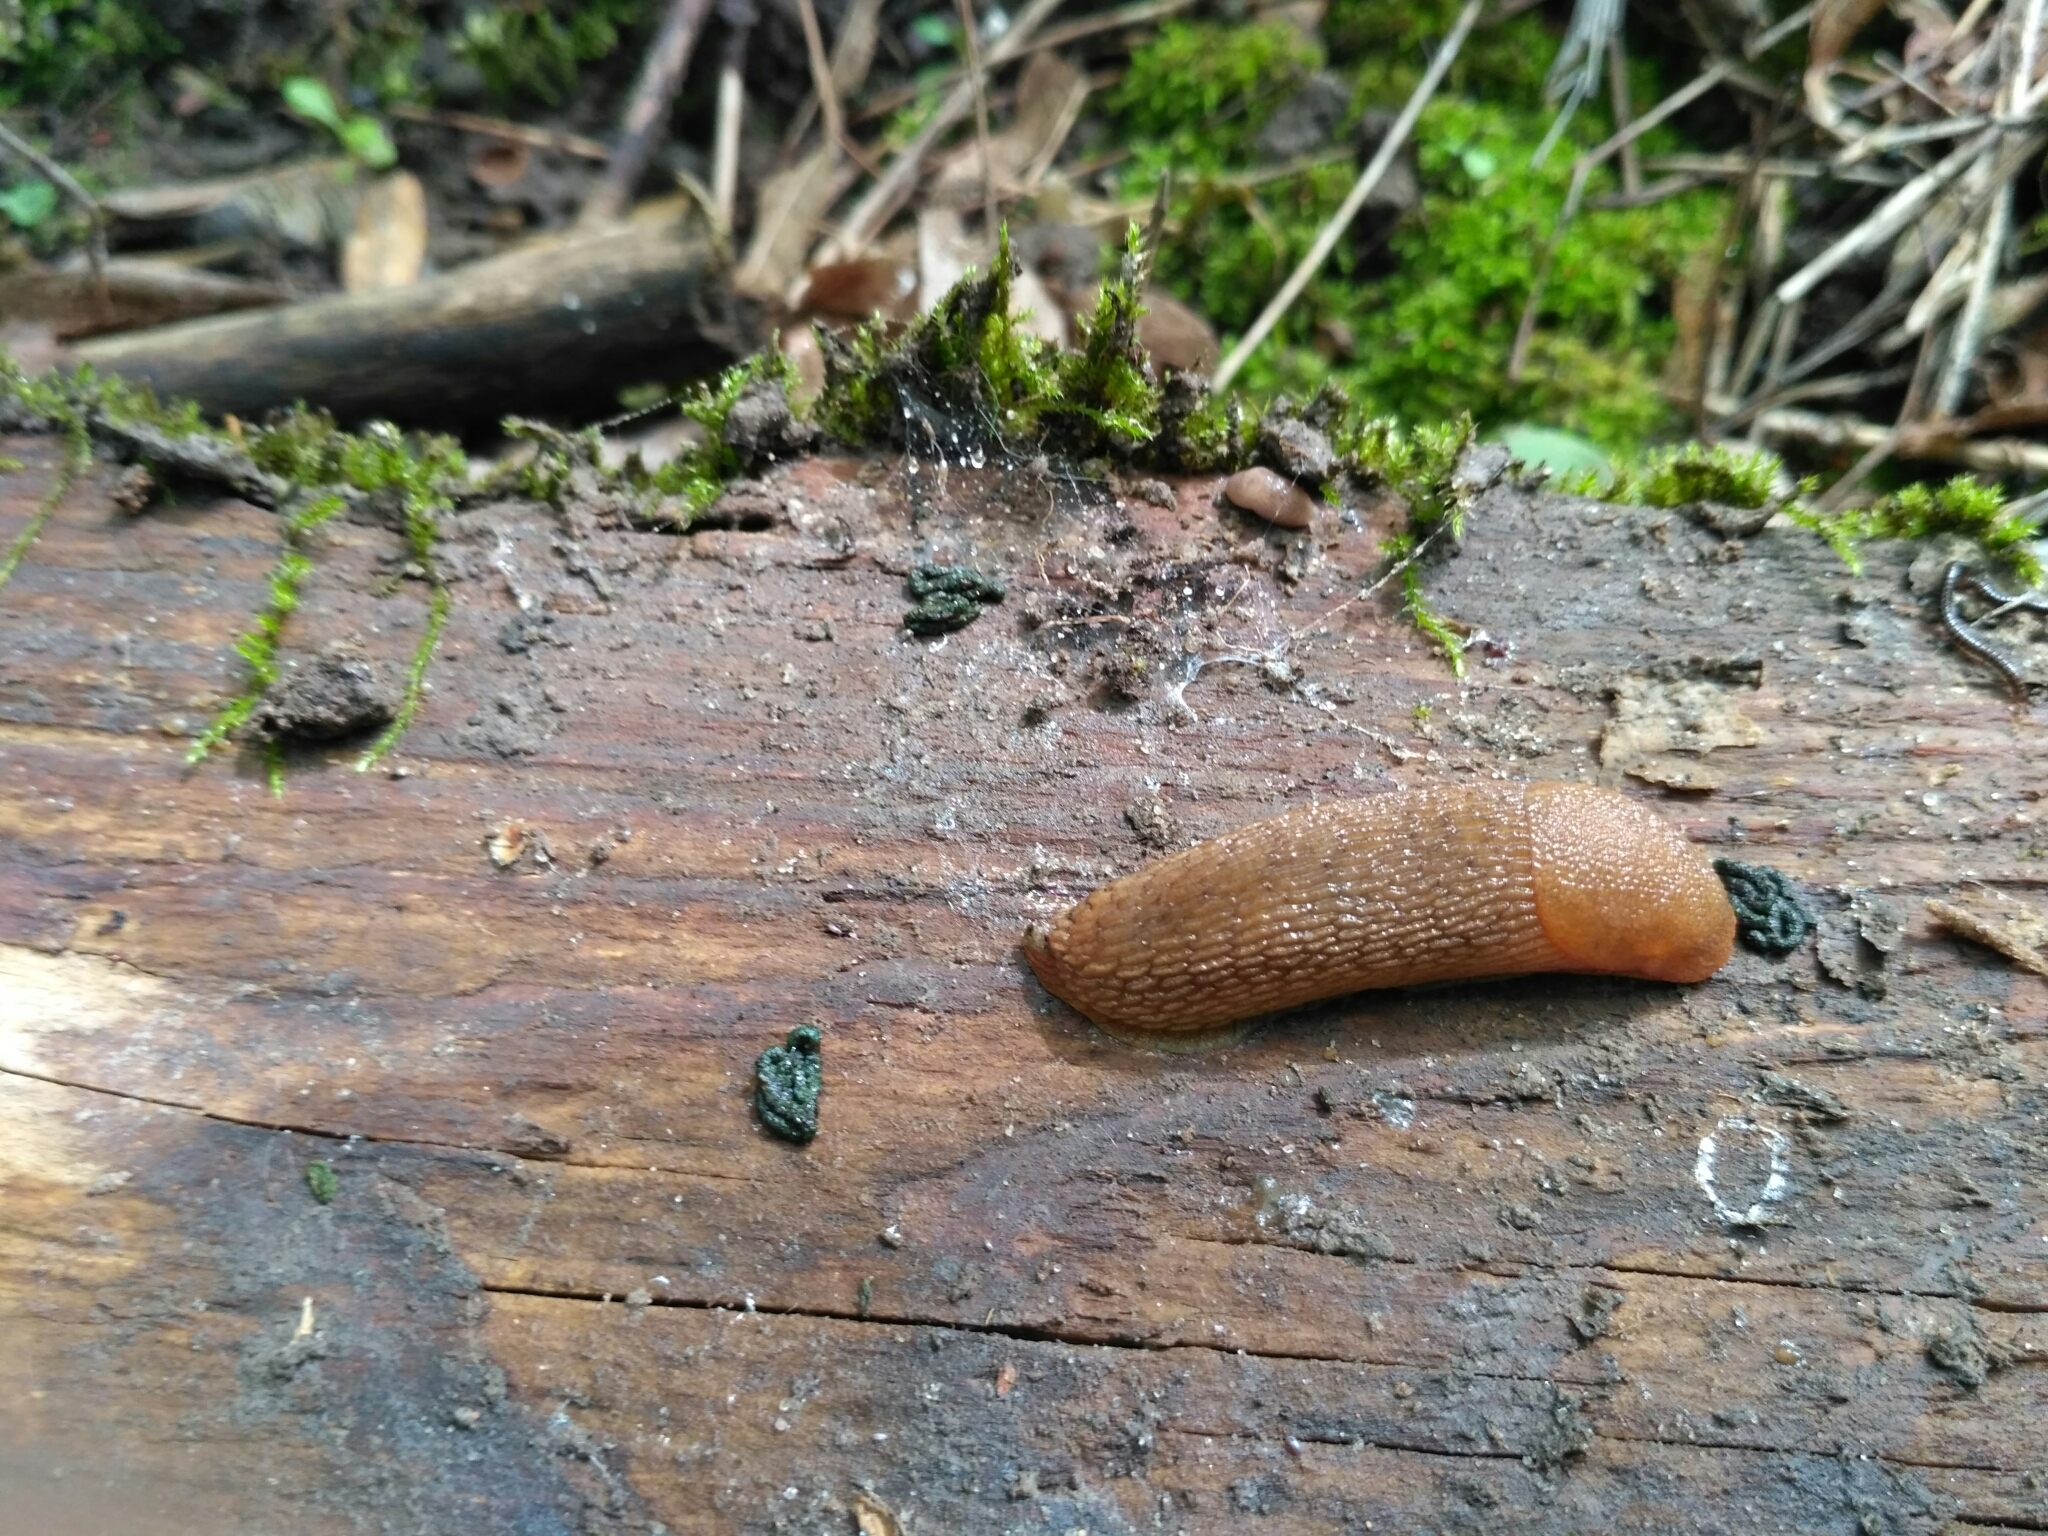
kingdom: Animalia
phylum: Mollusca
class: Gastropoda
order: Stylommatophora
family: Arionidae
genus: Arion
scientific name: Arion fuscus
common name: Northern dusky slug
